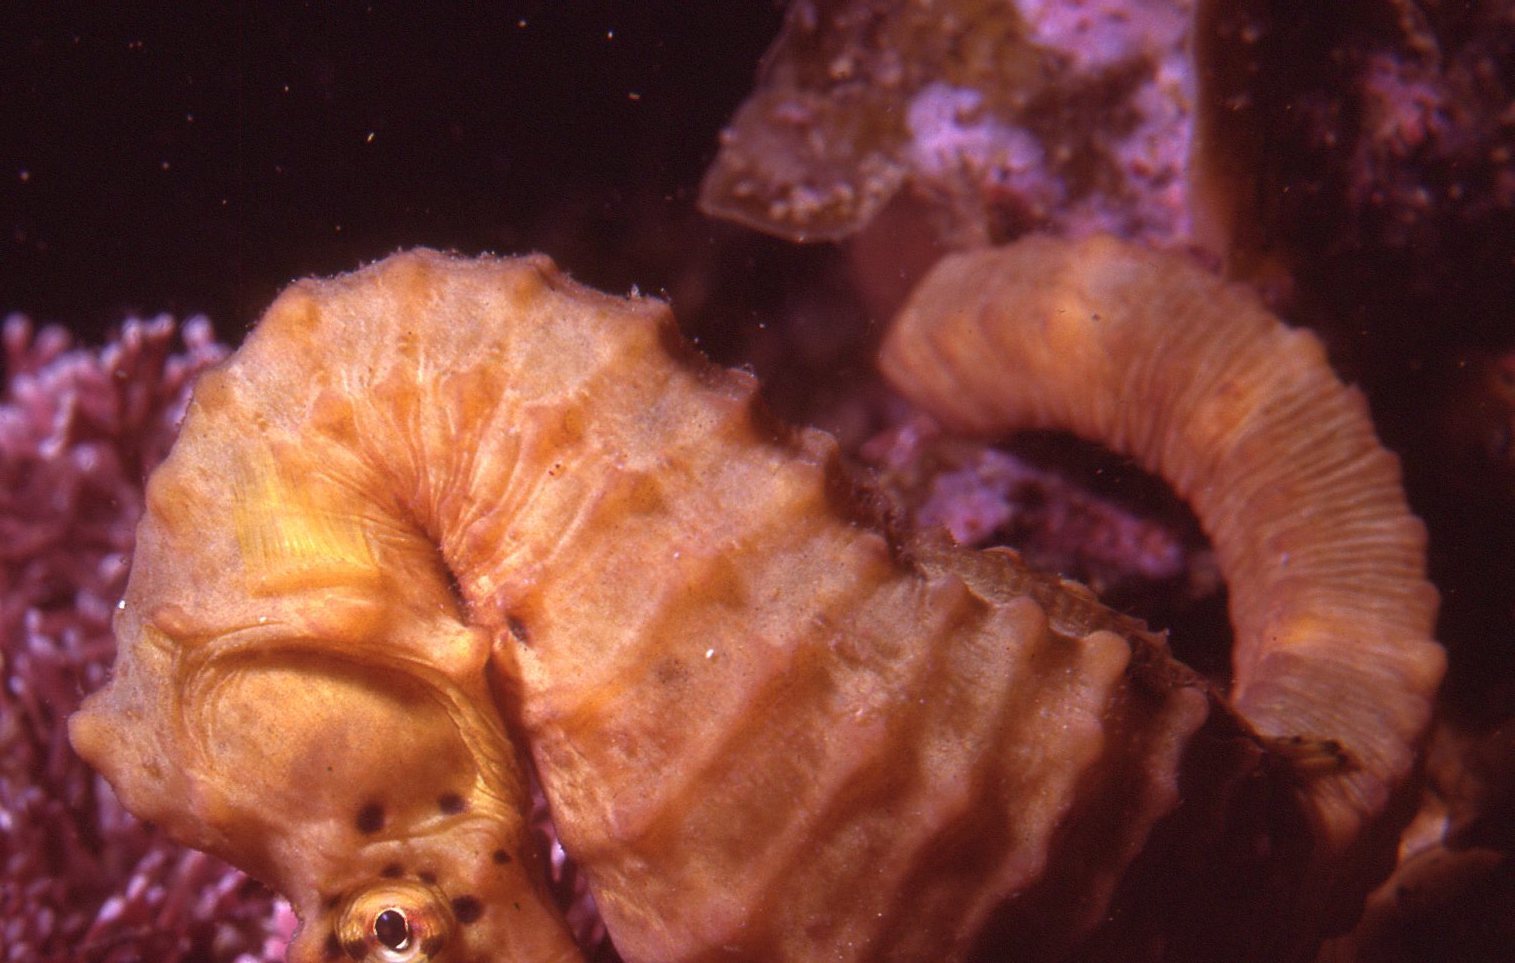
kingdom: Animalia
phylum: Chordata
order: Syngnathiformes
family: Syngnathidae
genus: Hippocampus
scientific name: Hippocampus abdominalis
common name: Big-belly seahorse
